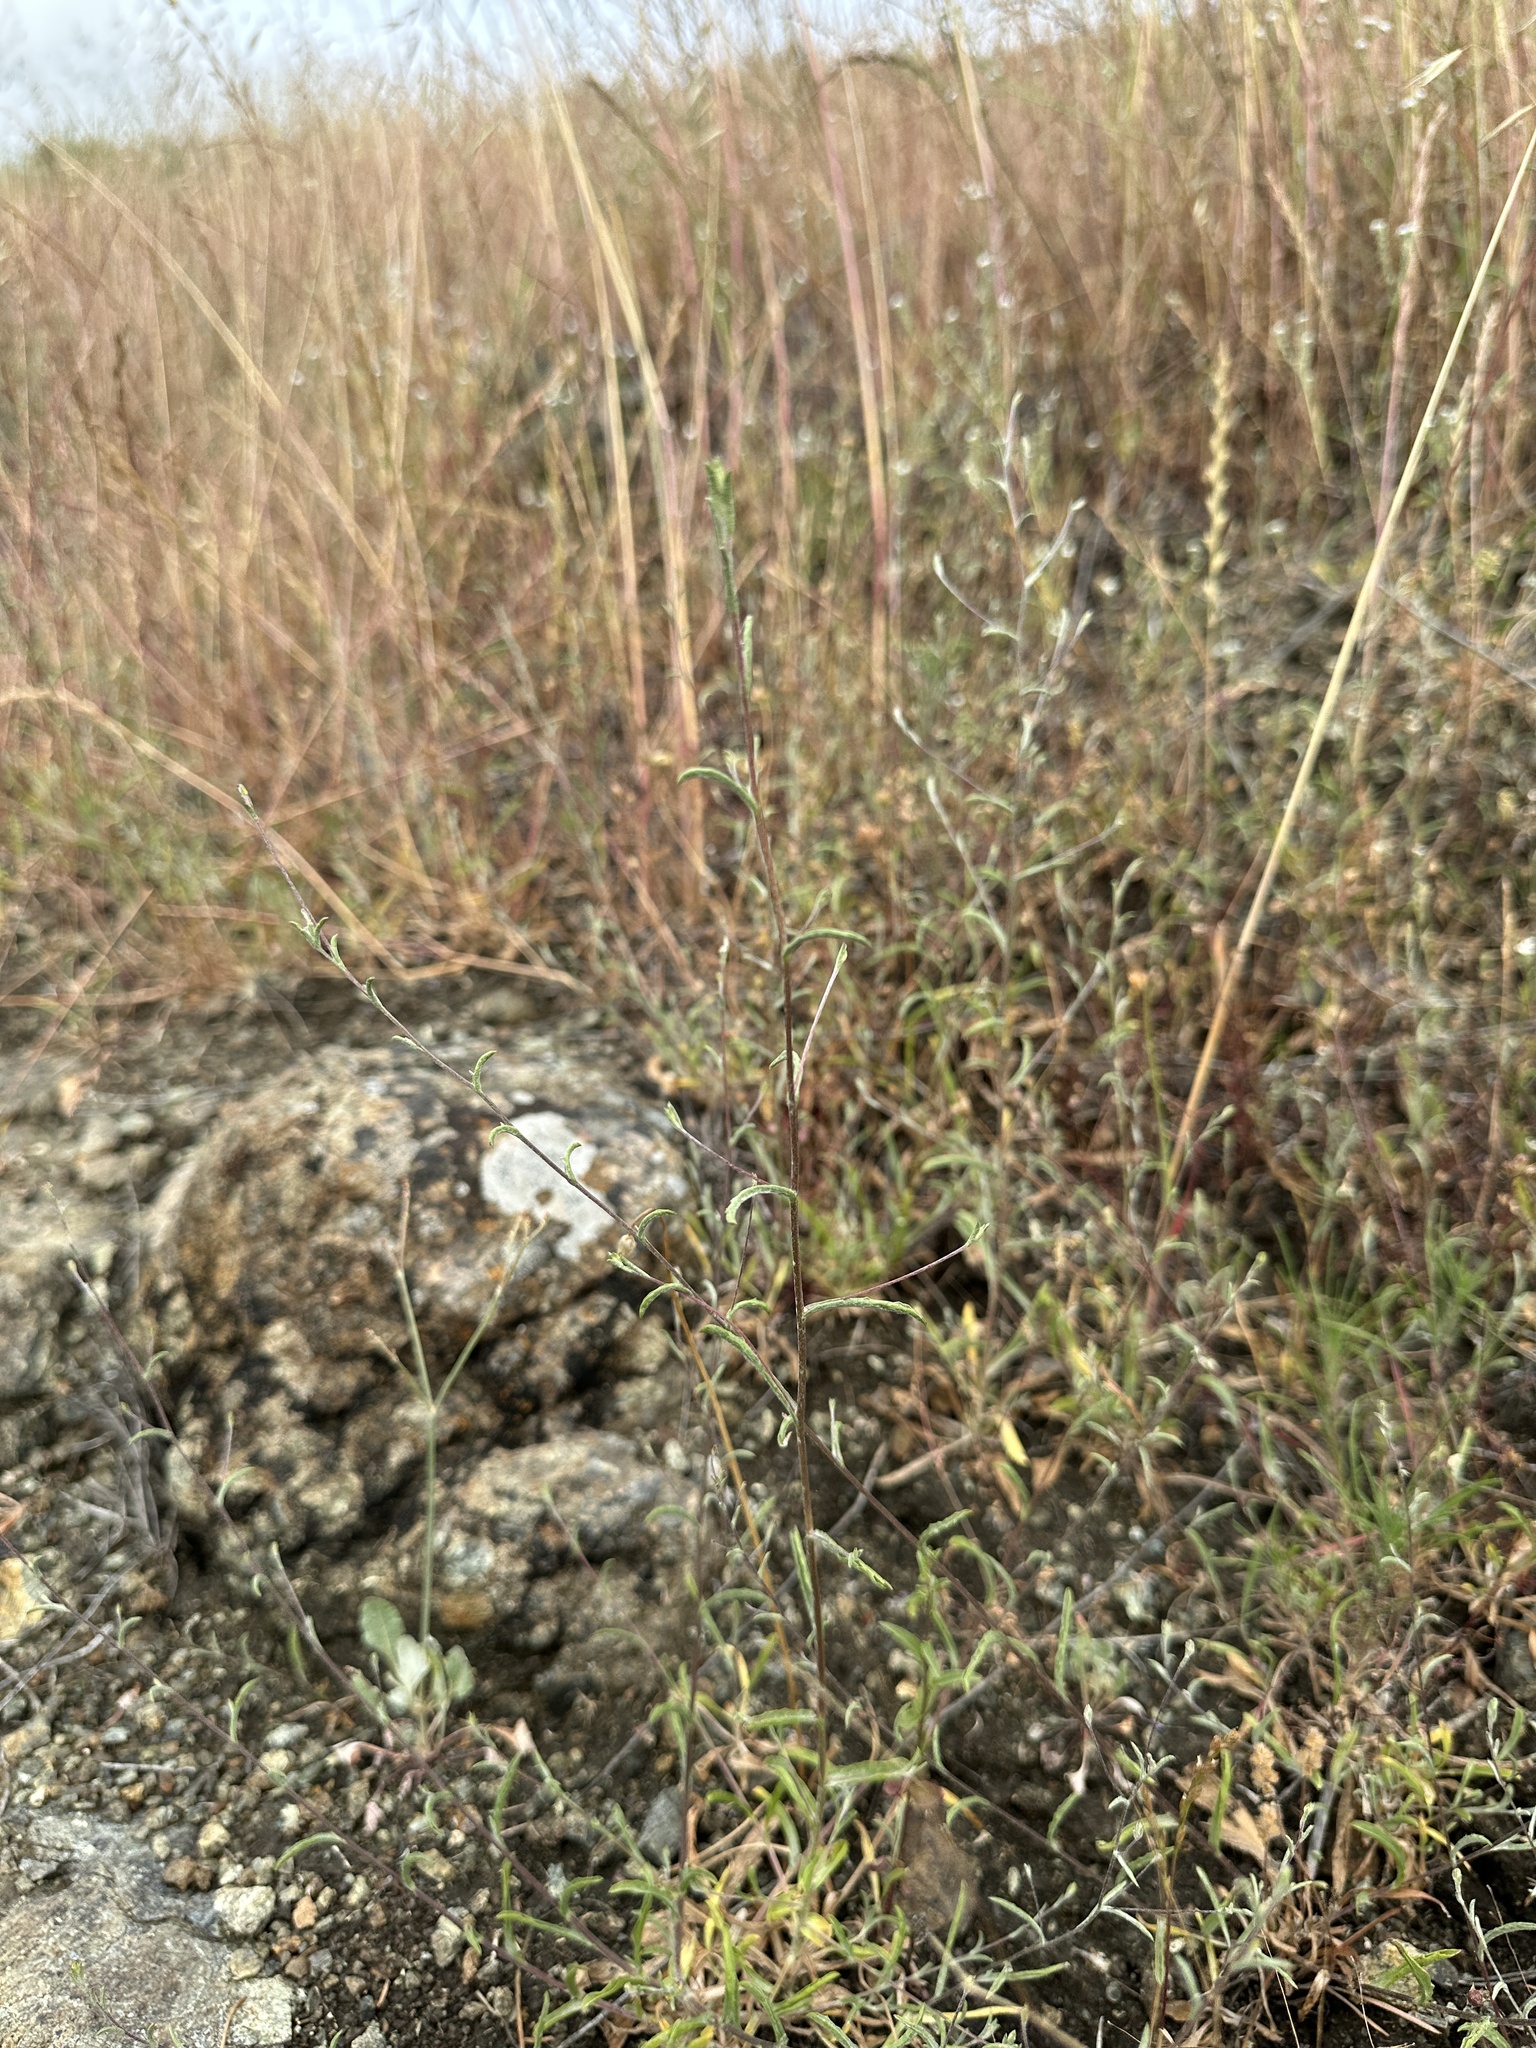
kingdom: Plantae
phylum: Tracheophyta
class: Magnoliopsida
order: Asterales
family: Asteraceae
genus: Lessingia
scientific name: Lessingia micradenia
